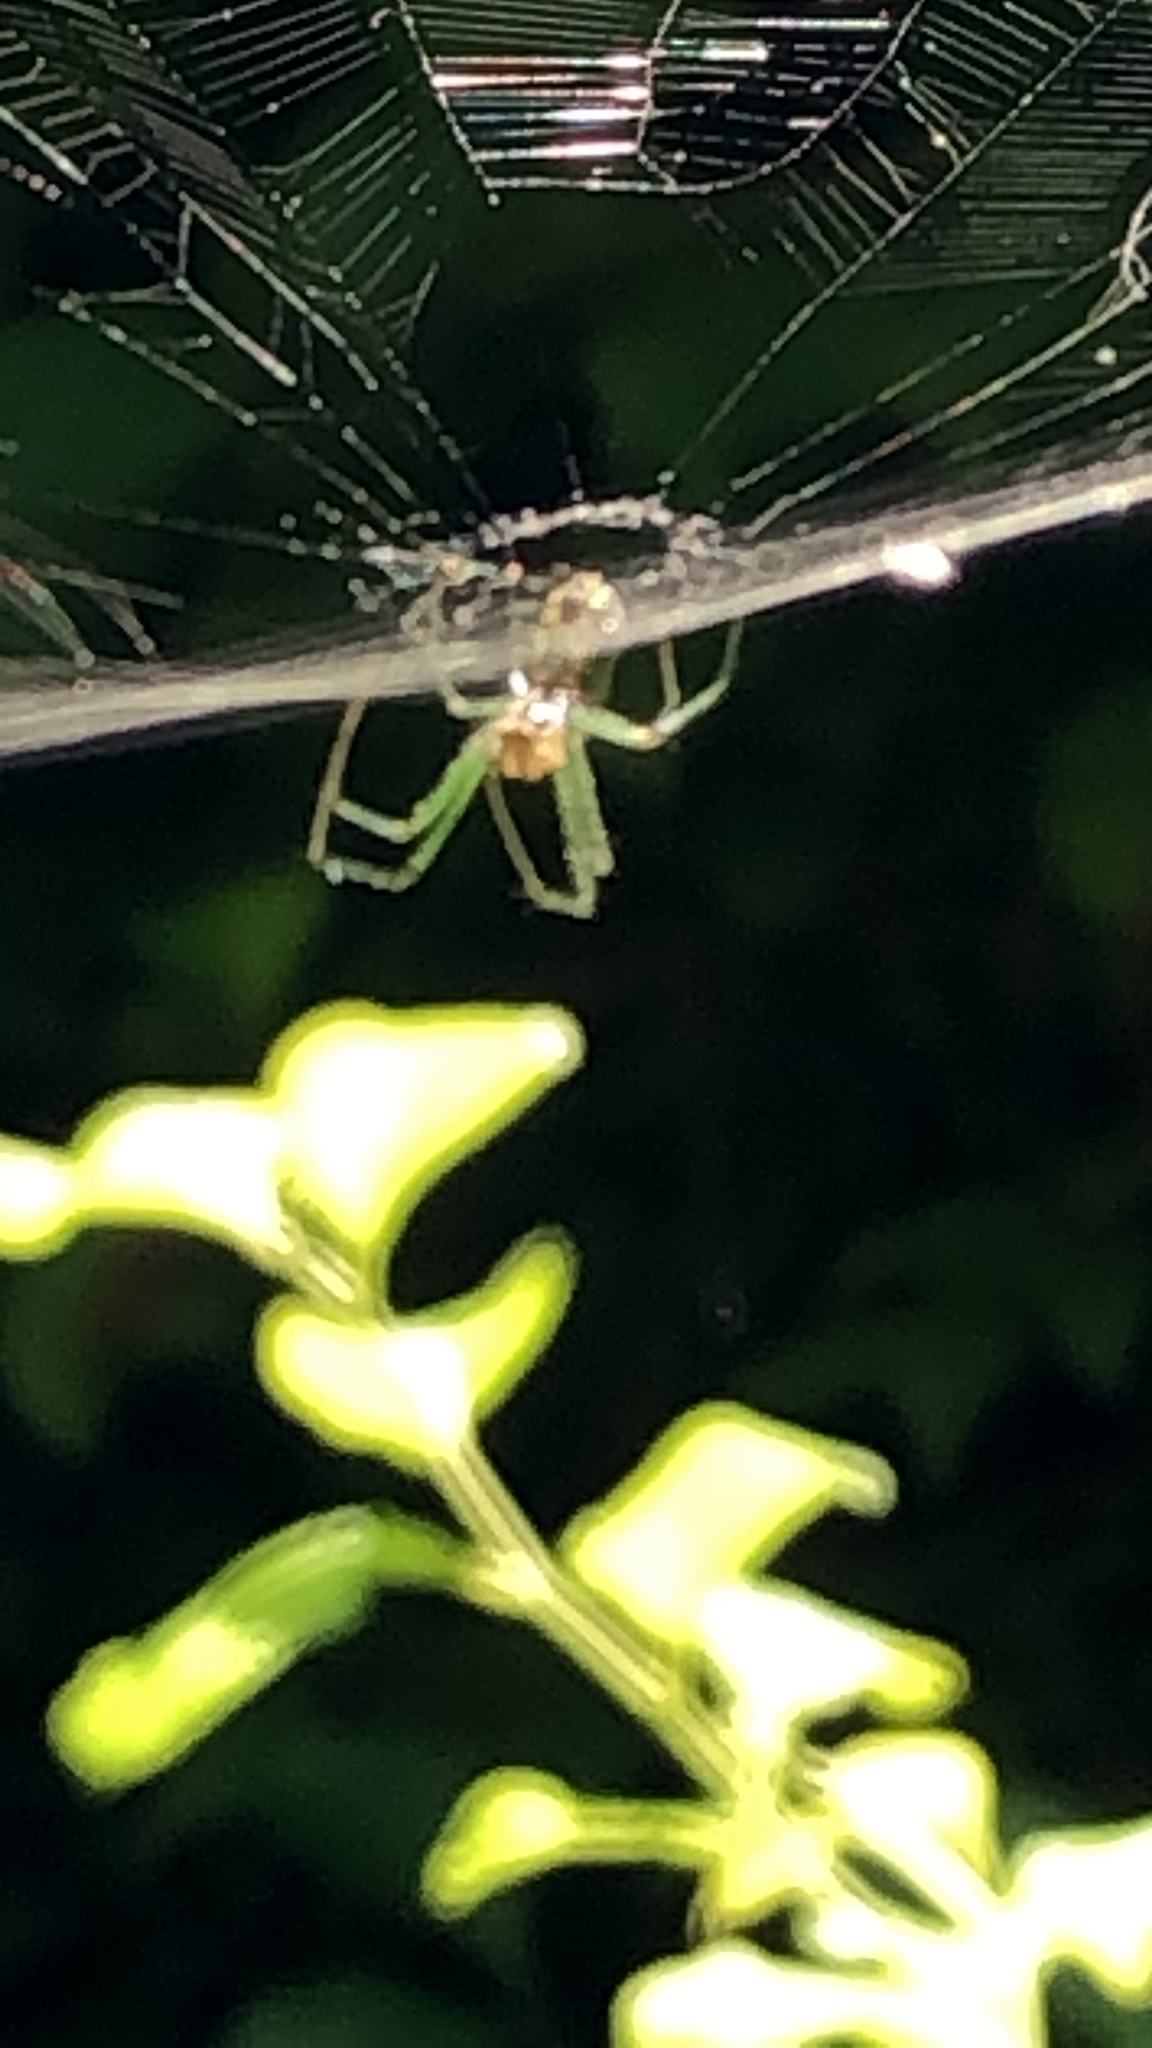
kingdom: Animalia
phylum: Arthropoda
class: Arachnida
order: Araneae
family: Tetragnathidae
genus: Leucauge
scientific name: Leucauge venusta
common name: Longjawed orb weavers
